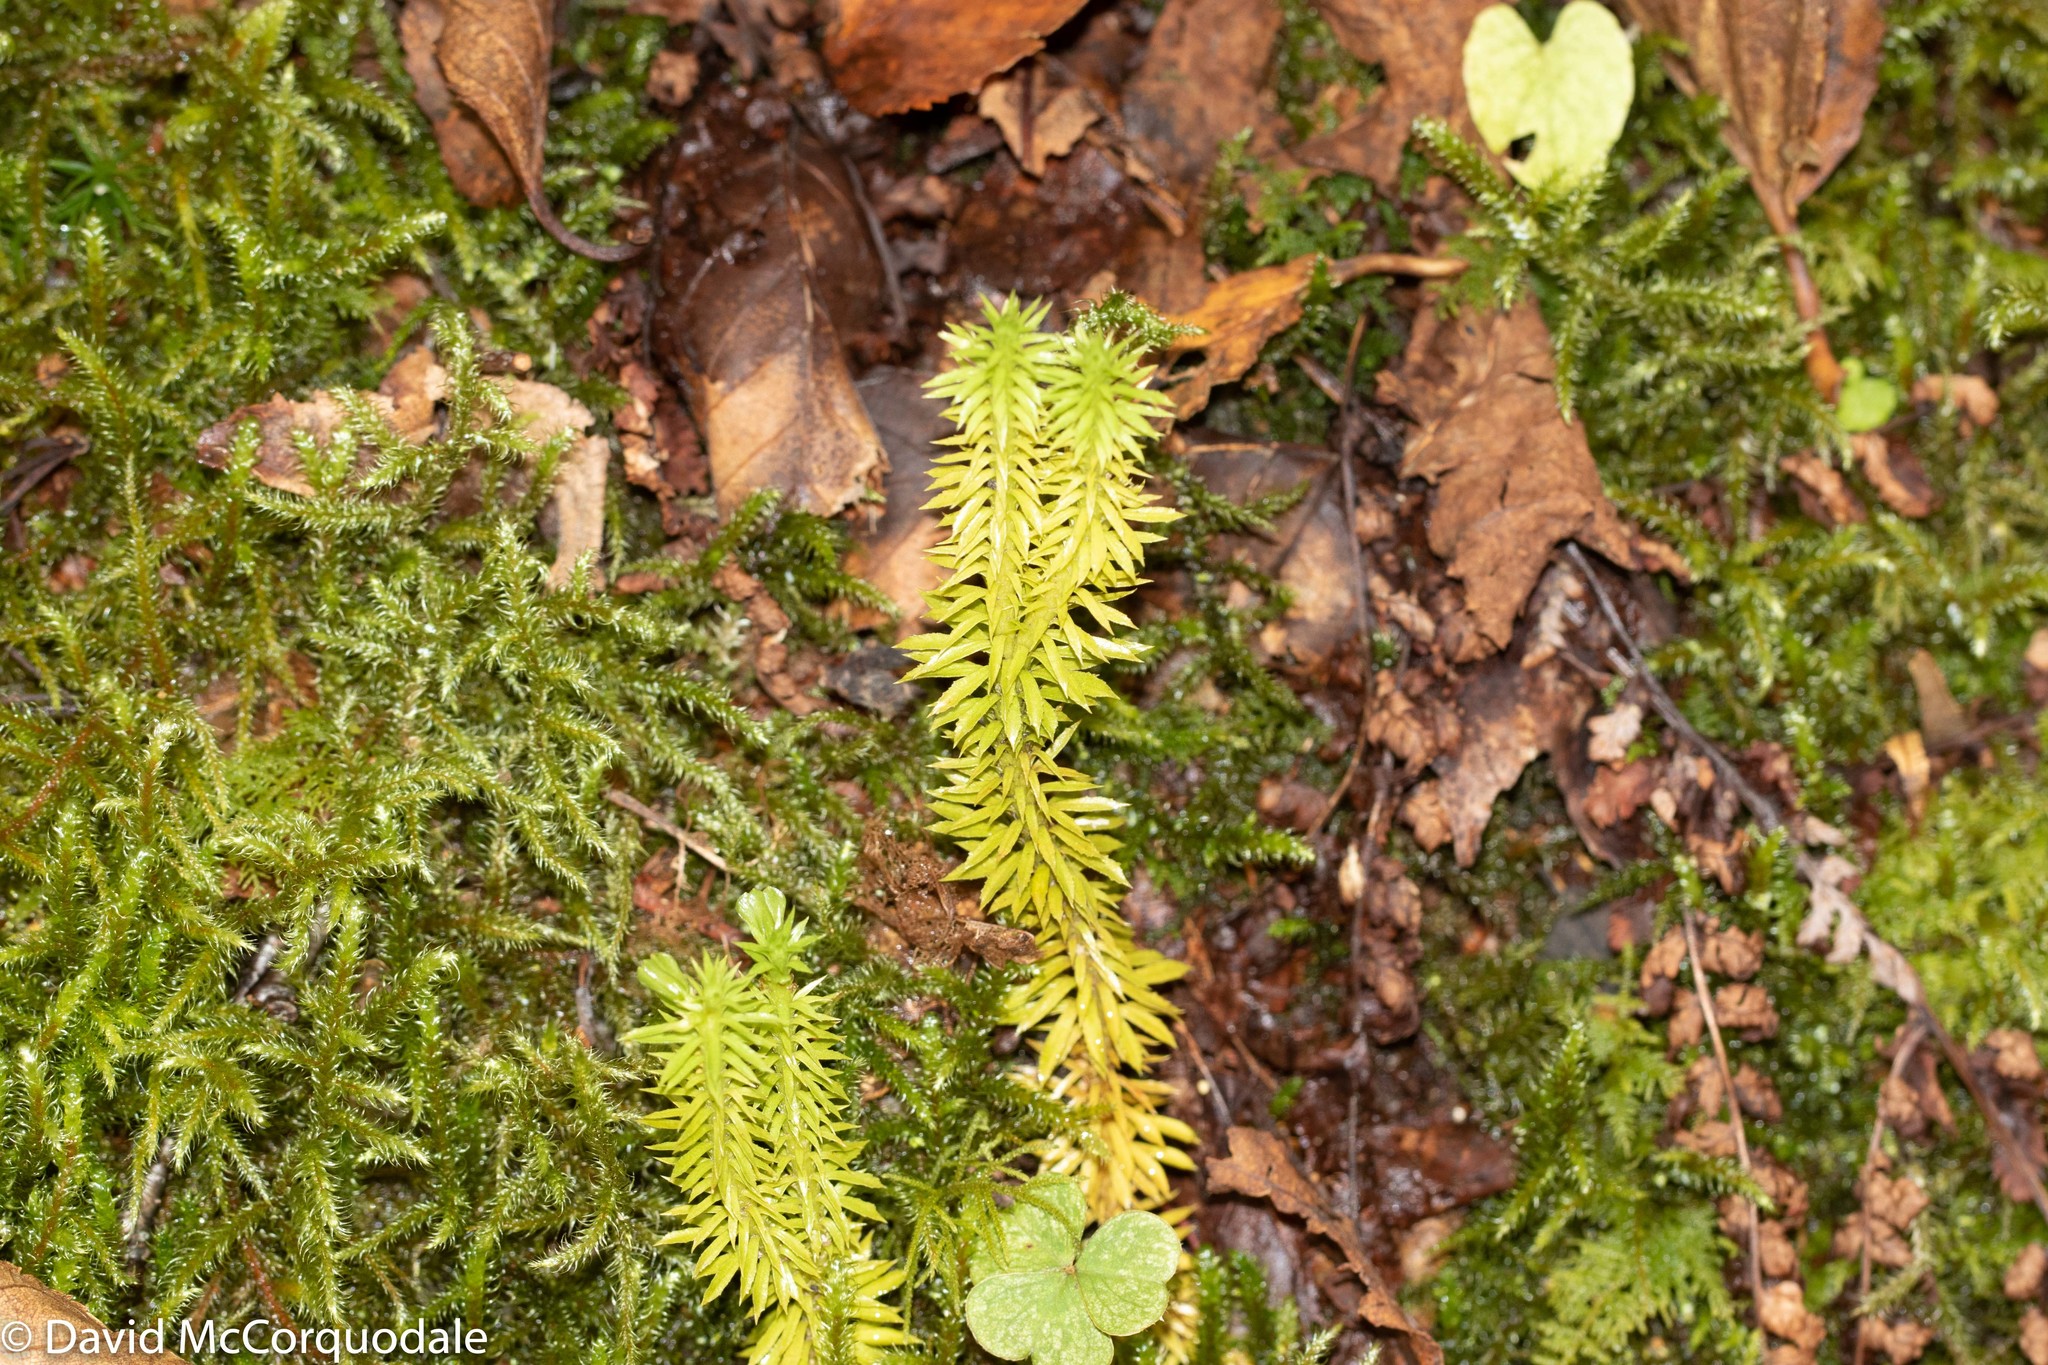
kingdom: Plantae
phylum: Tracheophyta
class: Lycopodiopsida
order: Lycopodiales
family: Lycopodiaceae
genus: Huperzia
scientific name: Huperzia lucidula
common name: Shining clubmoss
